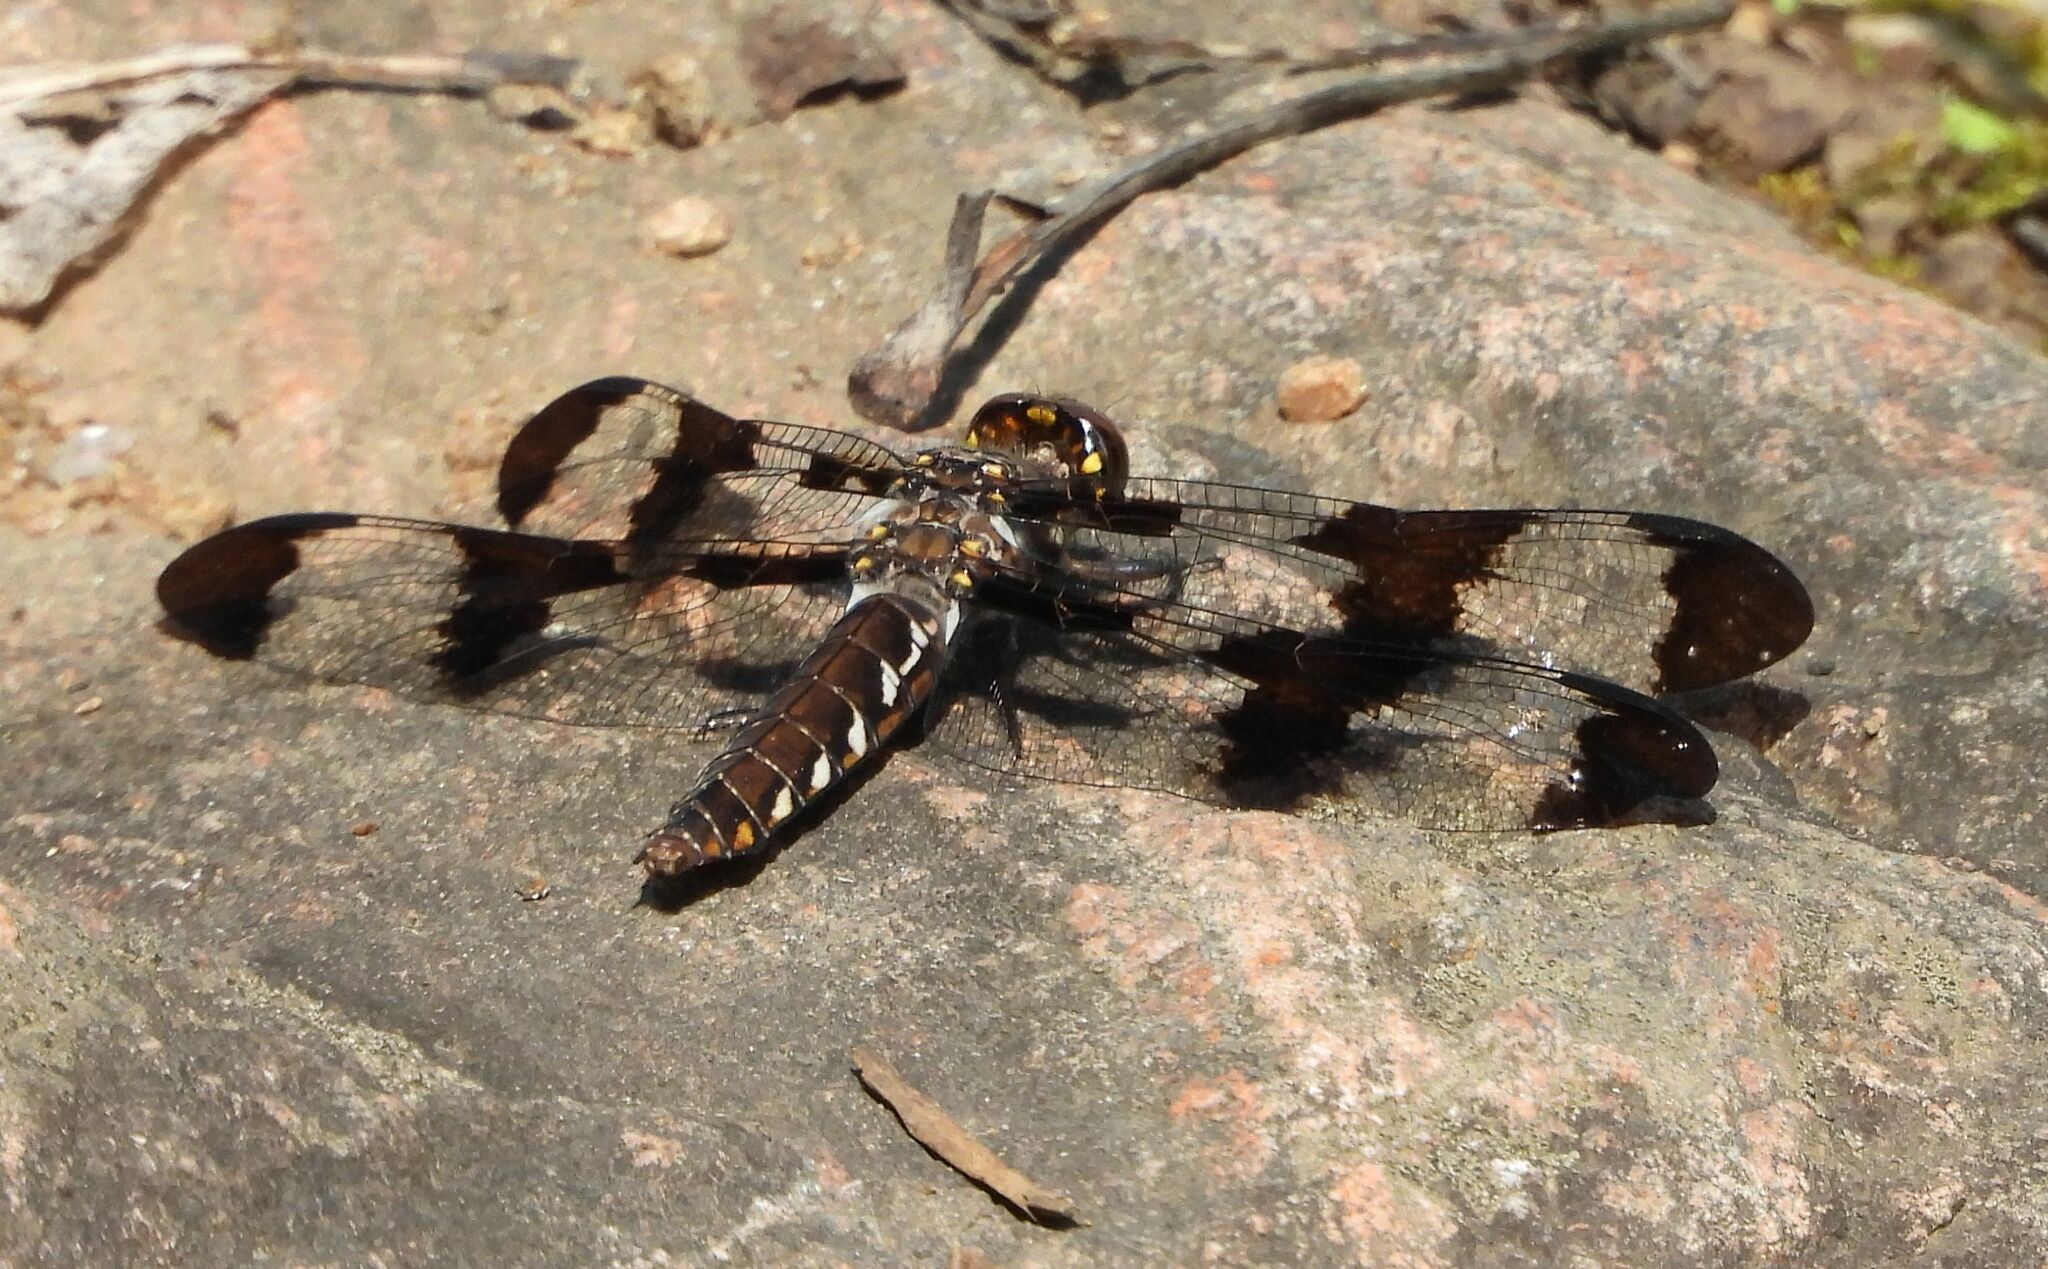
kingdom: Animalia
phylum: Arthropoda
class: Insecta
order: Odonata
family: Libellulidae
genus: Plathemis
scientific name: Plathemis lydia
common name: Common whitetail
